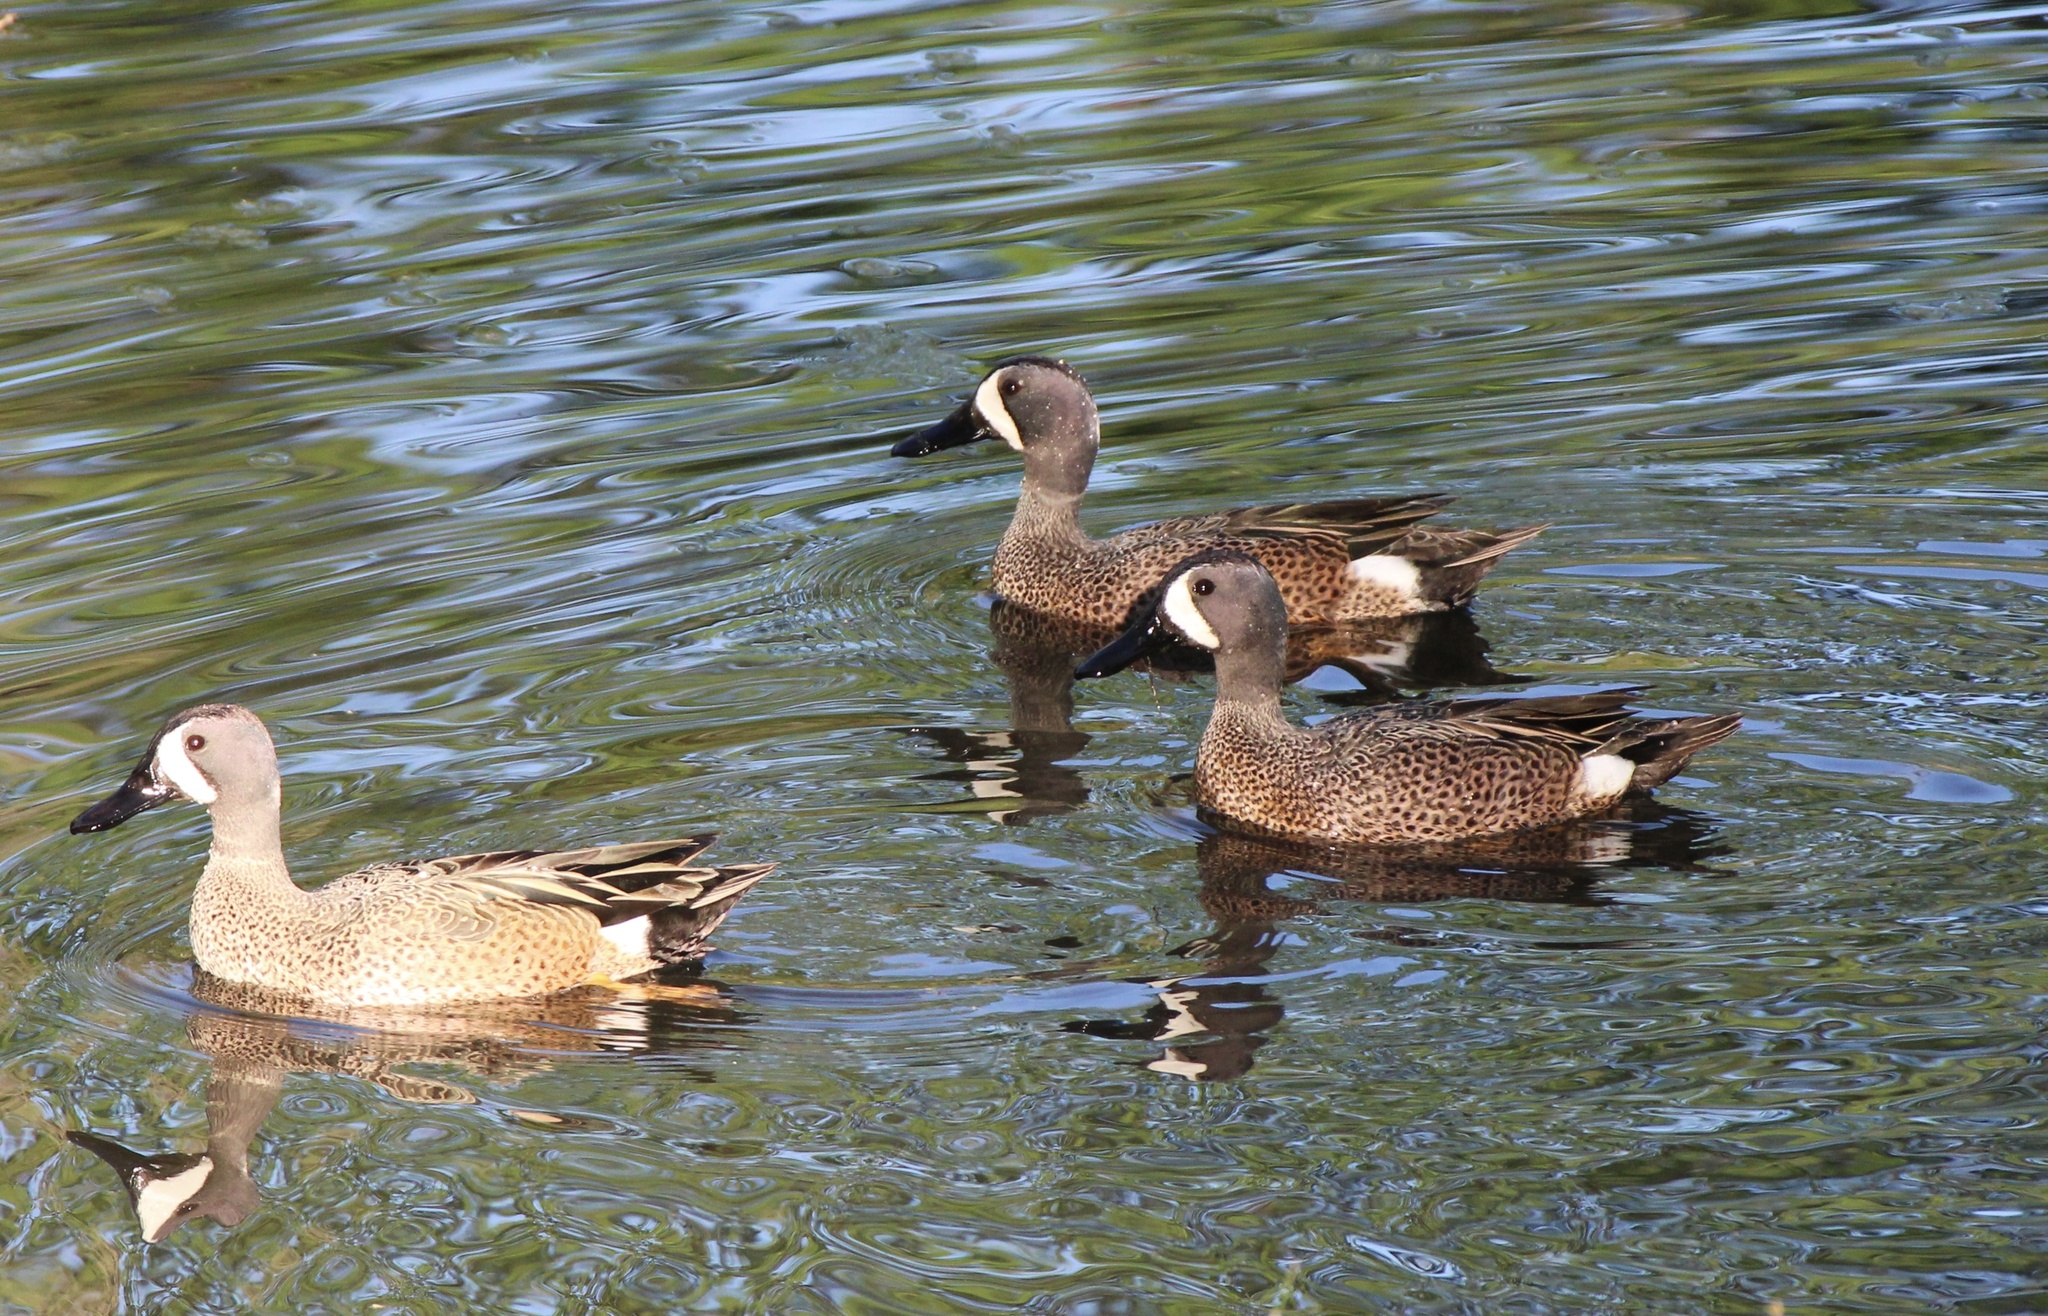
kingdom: Animalia
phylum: Chordata
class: Aves
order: Anseriformes
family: Anatidae
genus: Spatula
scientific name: Spatula discors
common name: Blue-winged teal
